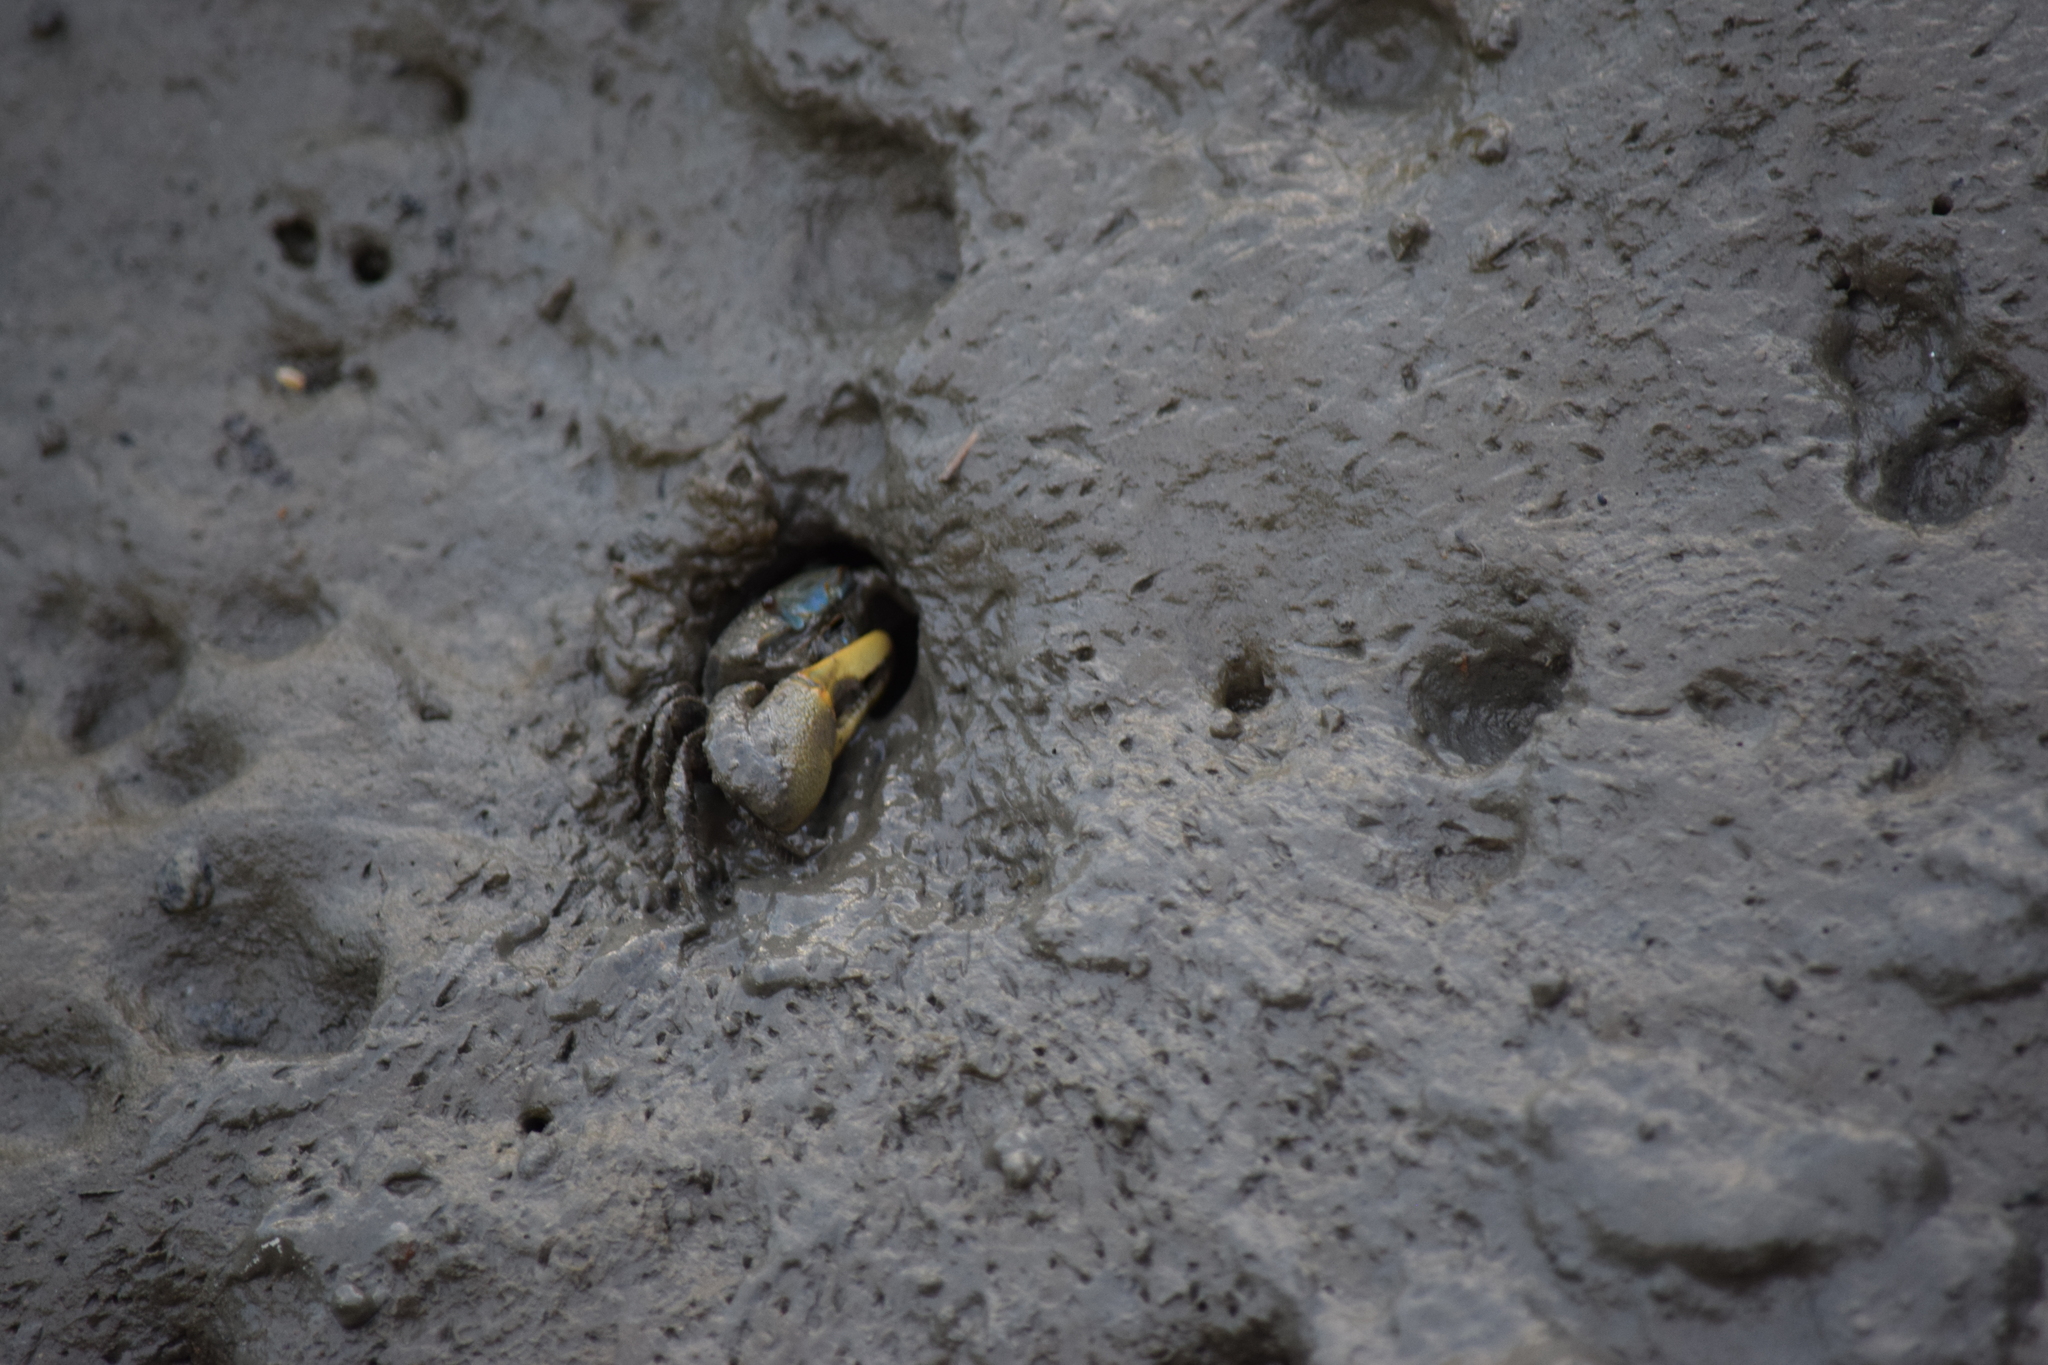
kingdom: Animalia
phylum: Arthropoda
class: Malacostraca
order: Decapoda
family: Ocypodidae
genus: Minuca
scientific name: Minuca pugnax
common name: Mud fiddler crab
